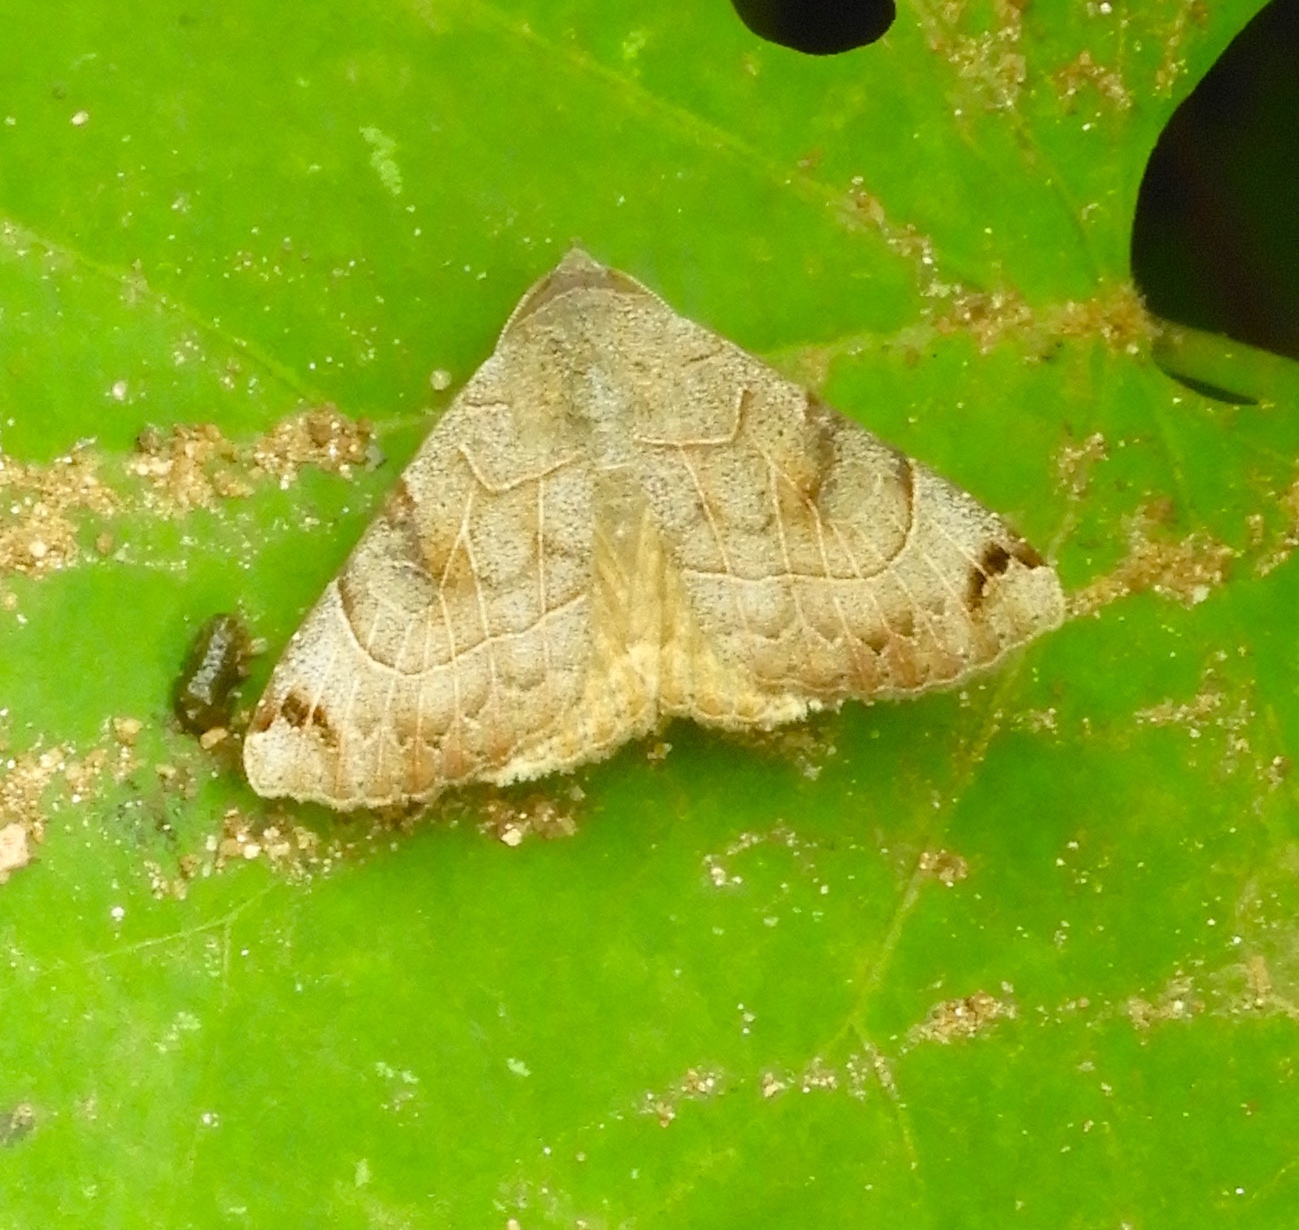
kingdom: Animalia
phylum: Arthropoda
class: Insecta
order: Lepidoptera
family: Erebidae
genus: Isogona
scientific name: Isogona scindens
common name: Owlet moth
